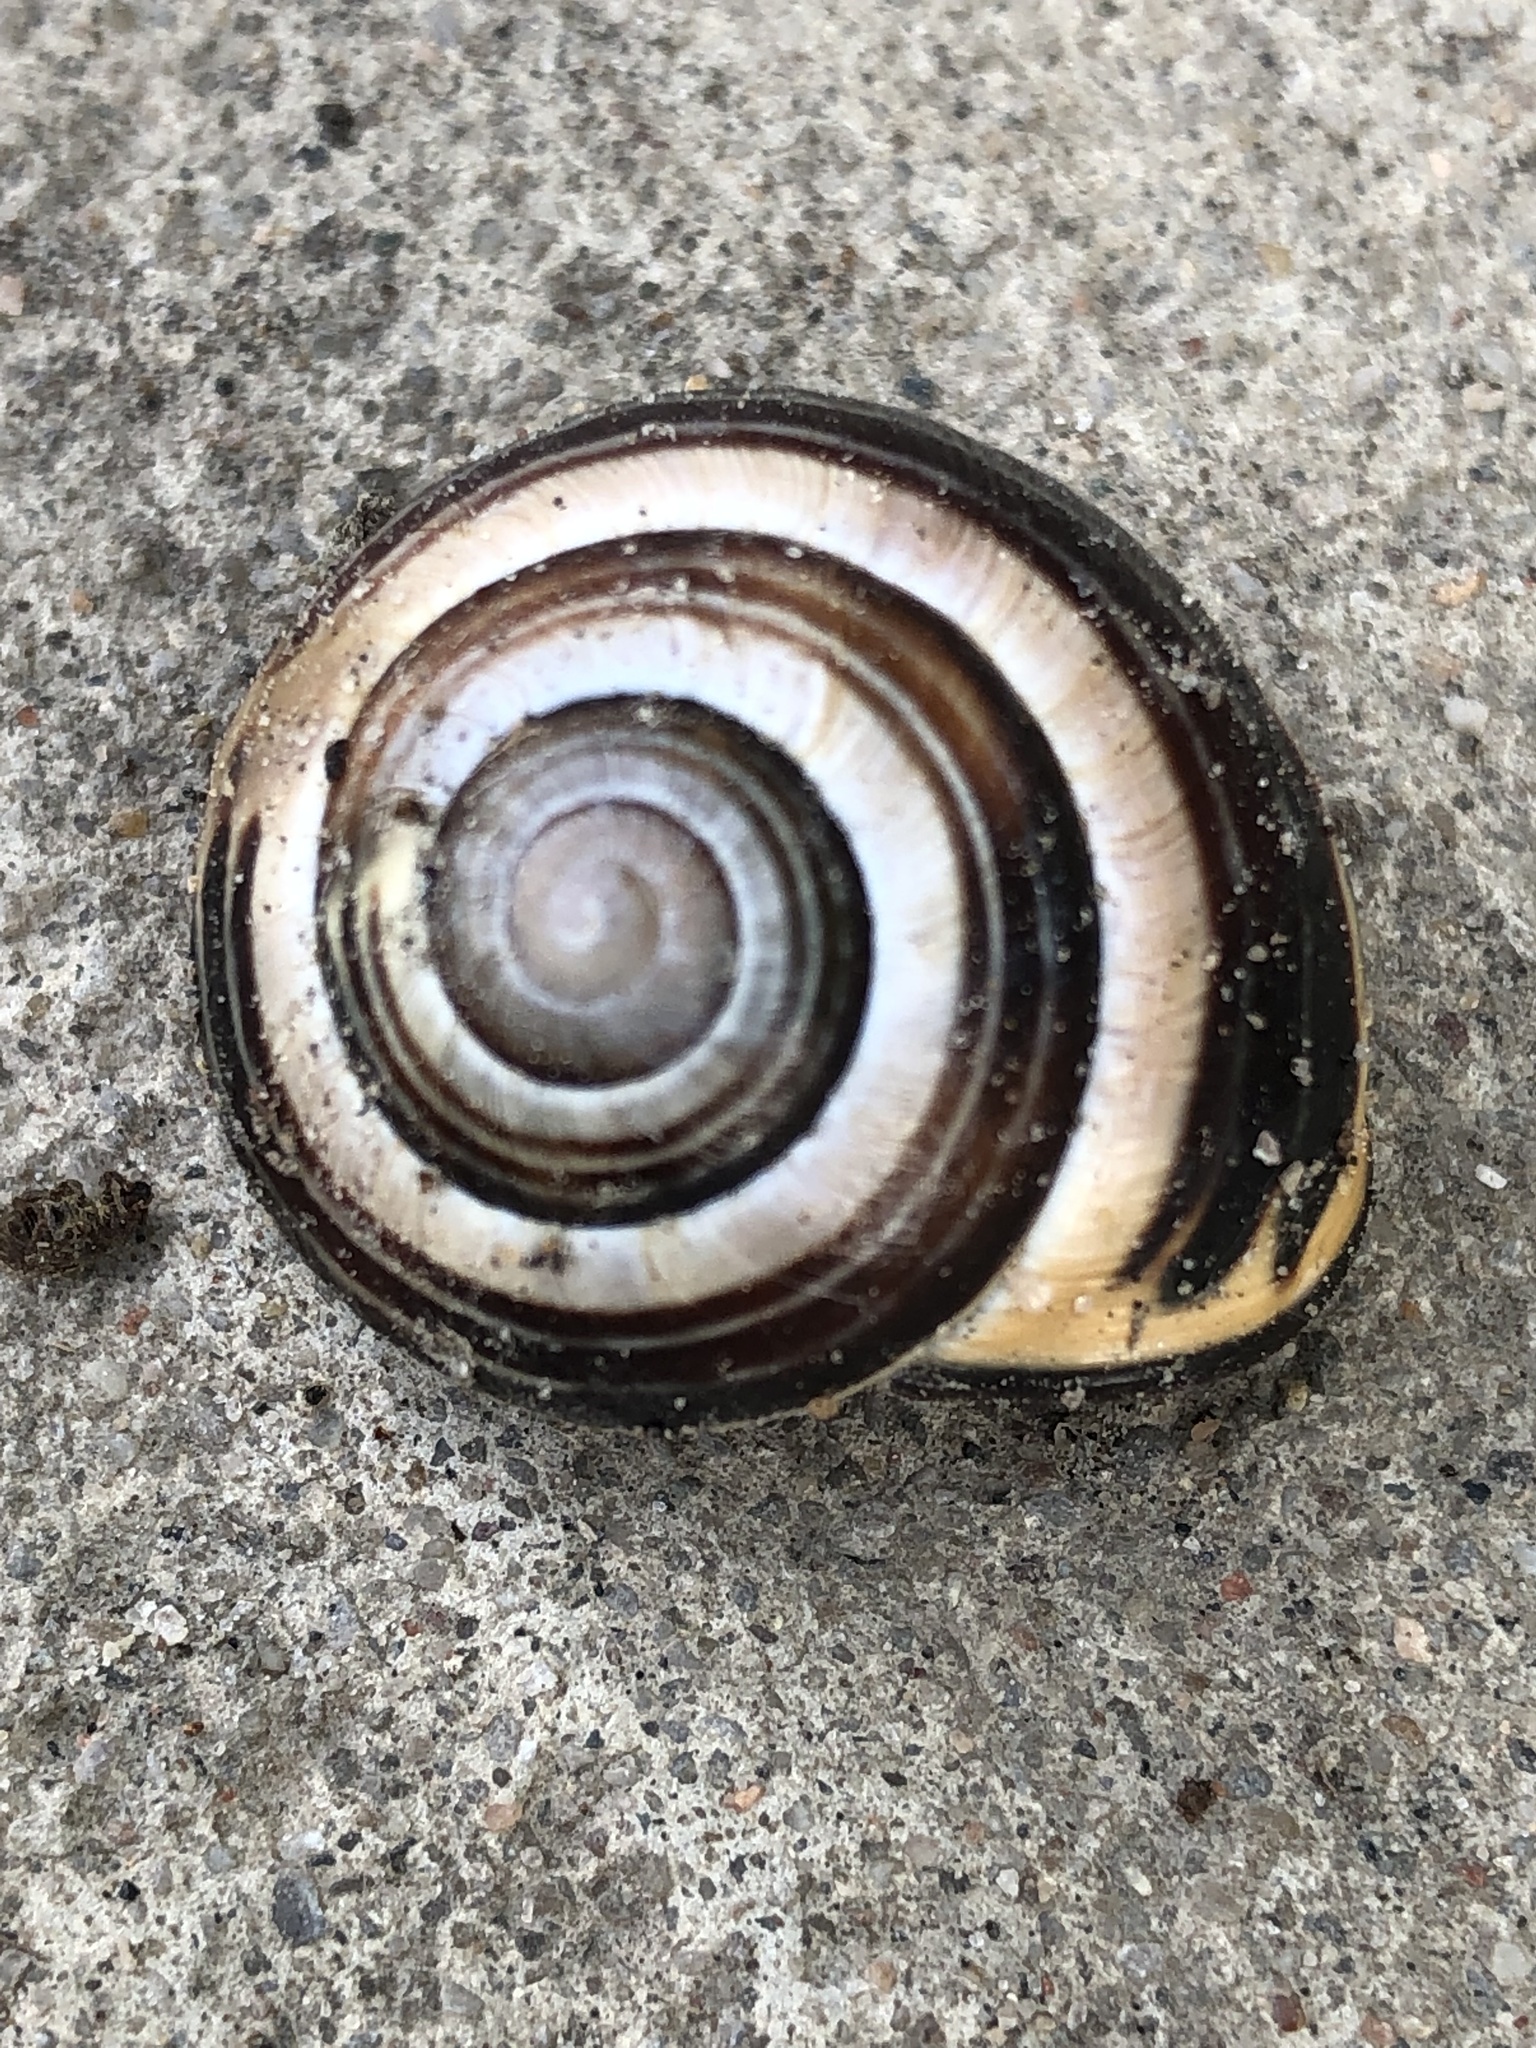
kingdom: Animalia
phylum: Mollusca
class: Gastropoda
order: Stylommatophora
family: Helicidae
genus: Cepaea
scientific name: Cepaea nemoralis
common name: Grovesnail
